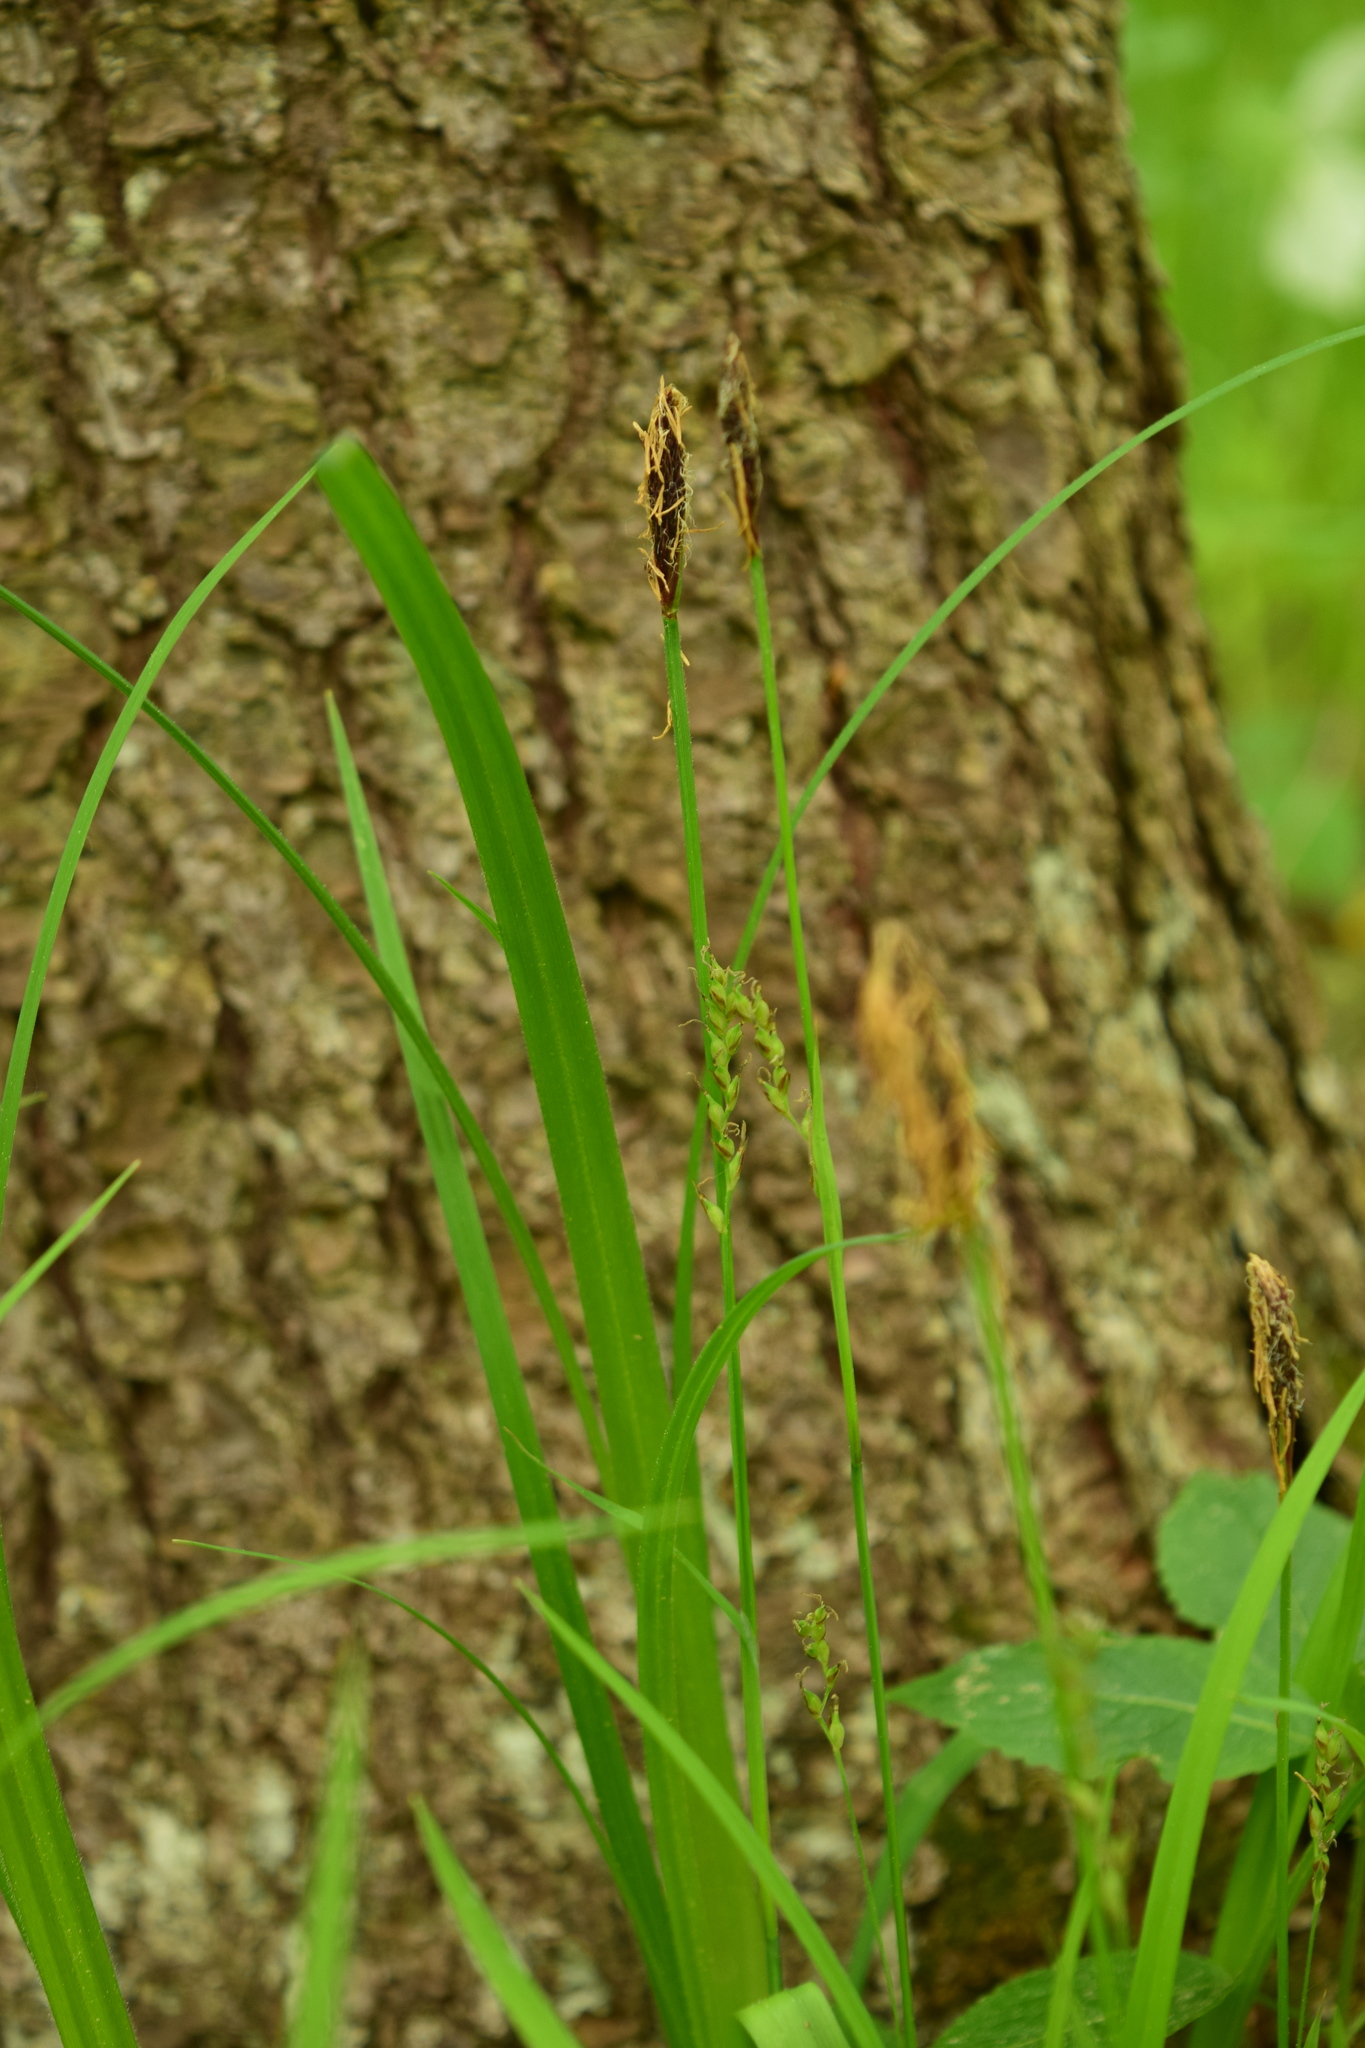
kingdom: Plantae
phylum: Tracheophyta
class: Liliopsida
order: Poales
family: Cyperaceae
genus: Carex
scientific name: Carex pilosa
